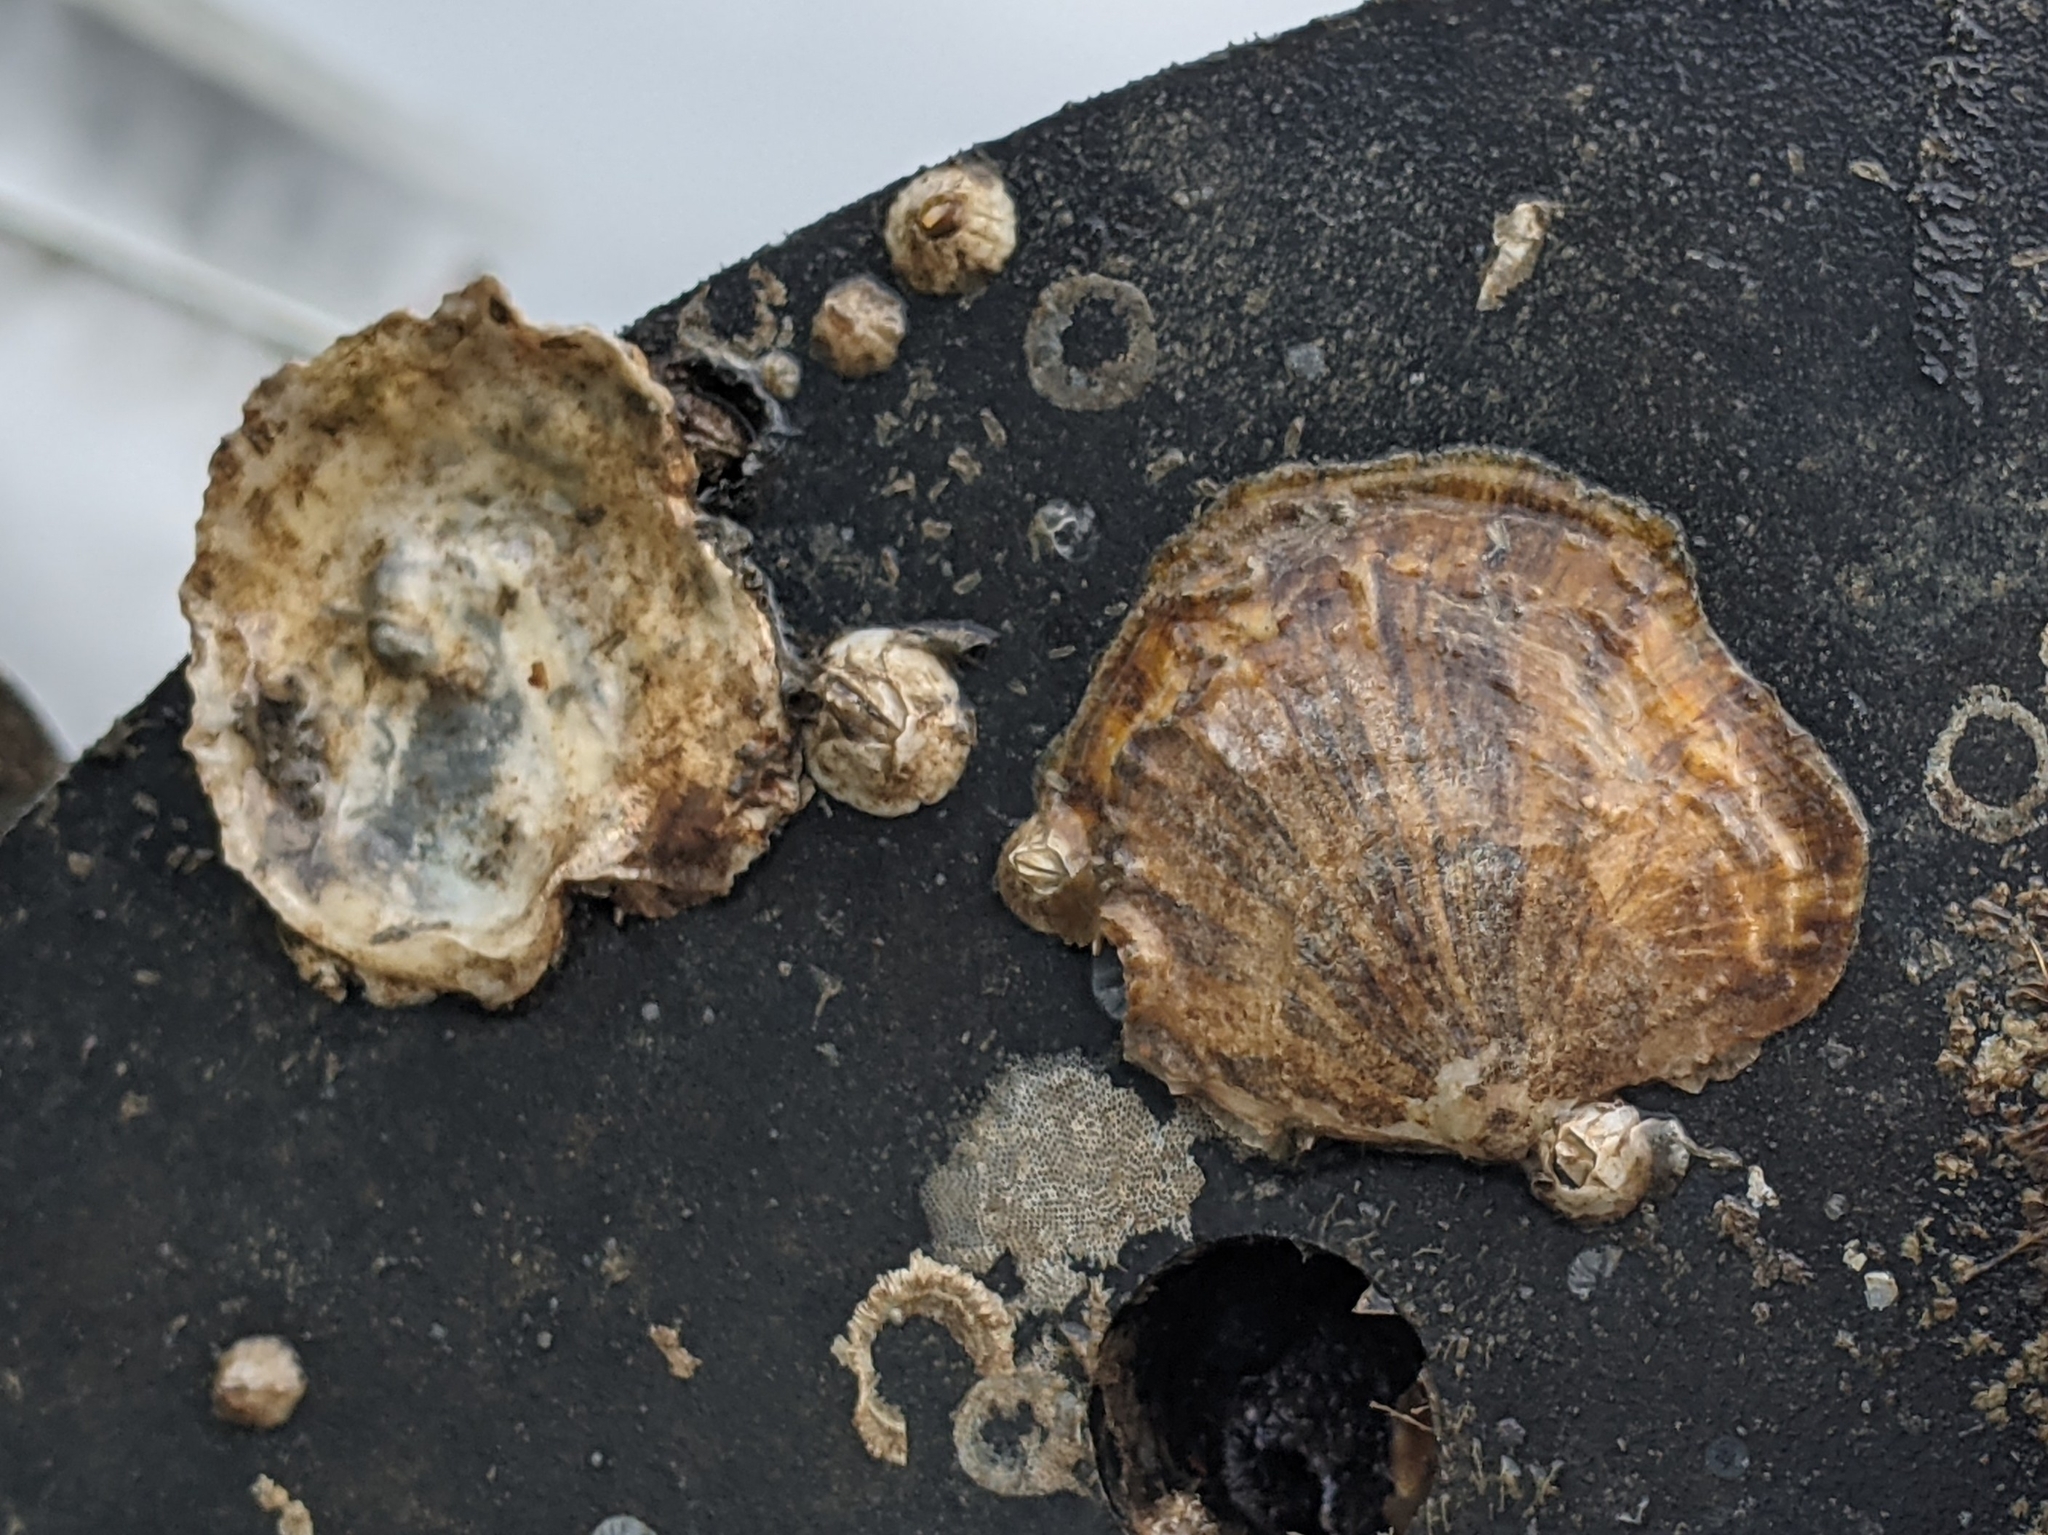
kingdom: Animalia
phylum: Mollusca
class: Bivalvia
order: Ostreida
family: Ostreidae
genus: Ostrea
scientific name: Ostrea lurida
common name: Olympia flat oyster
